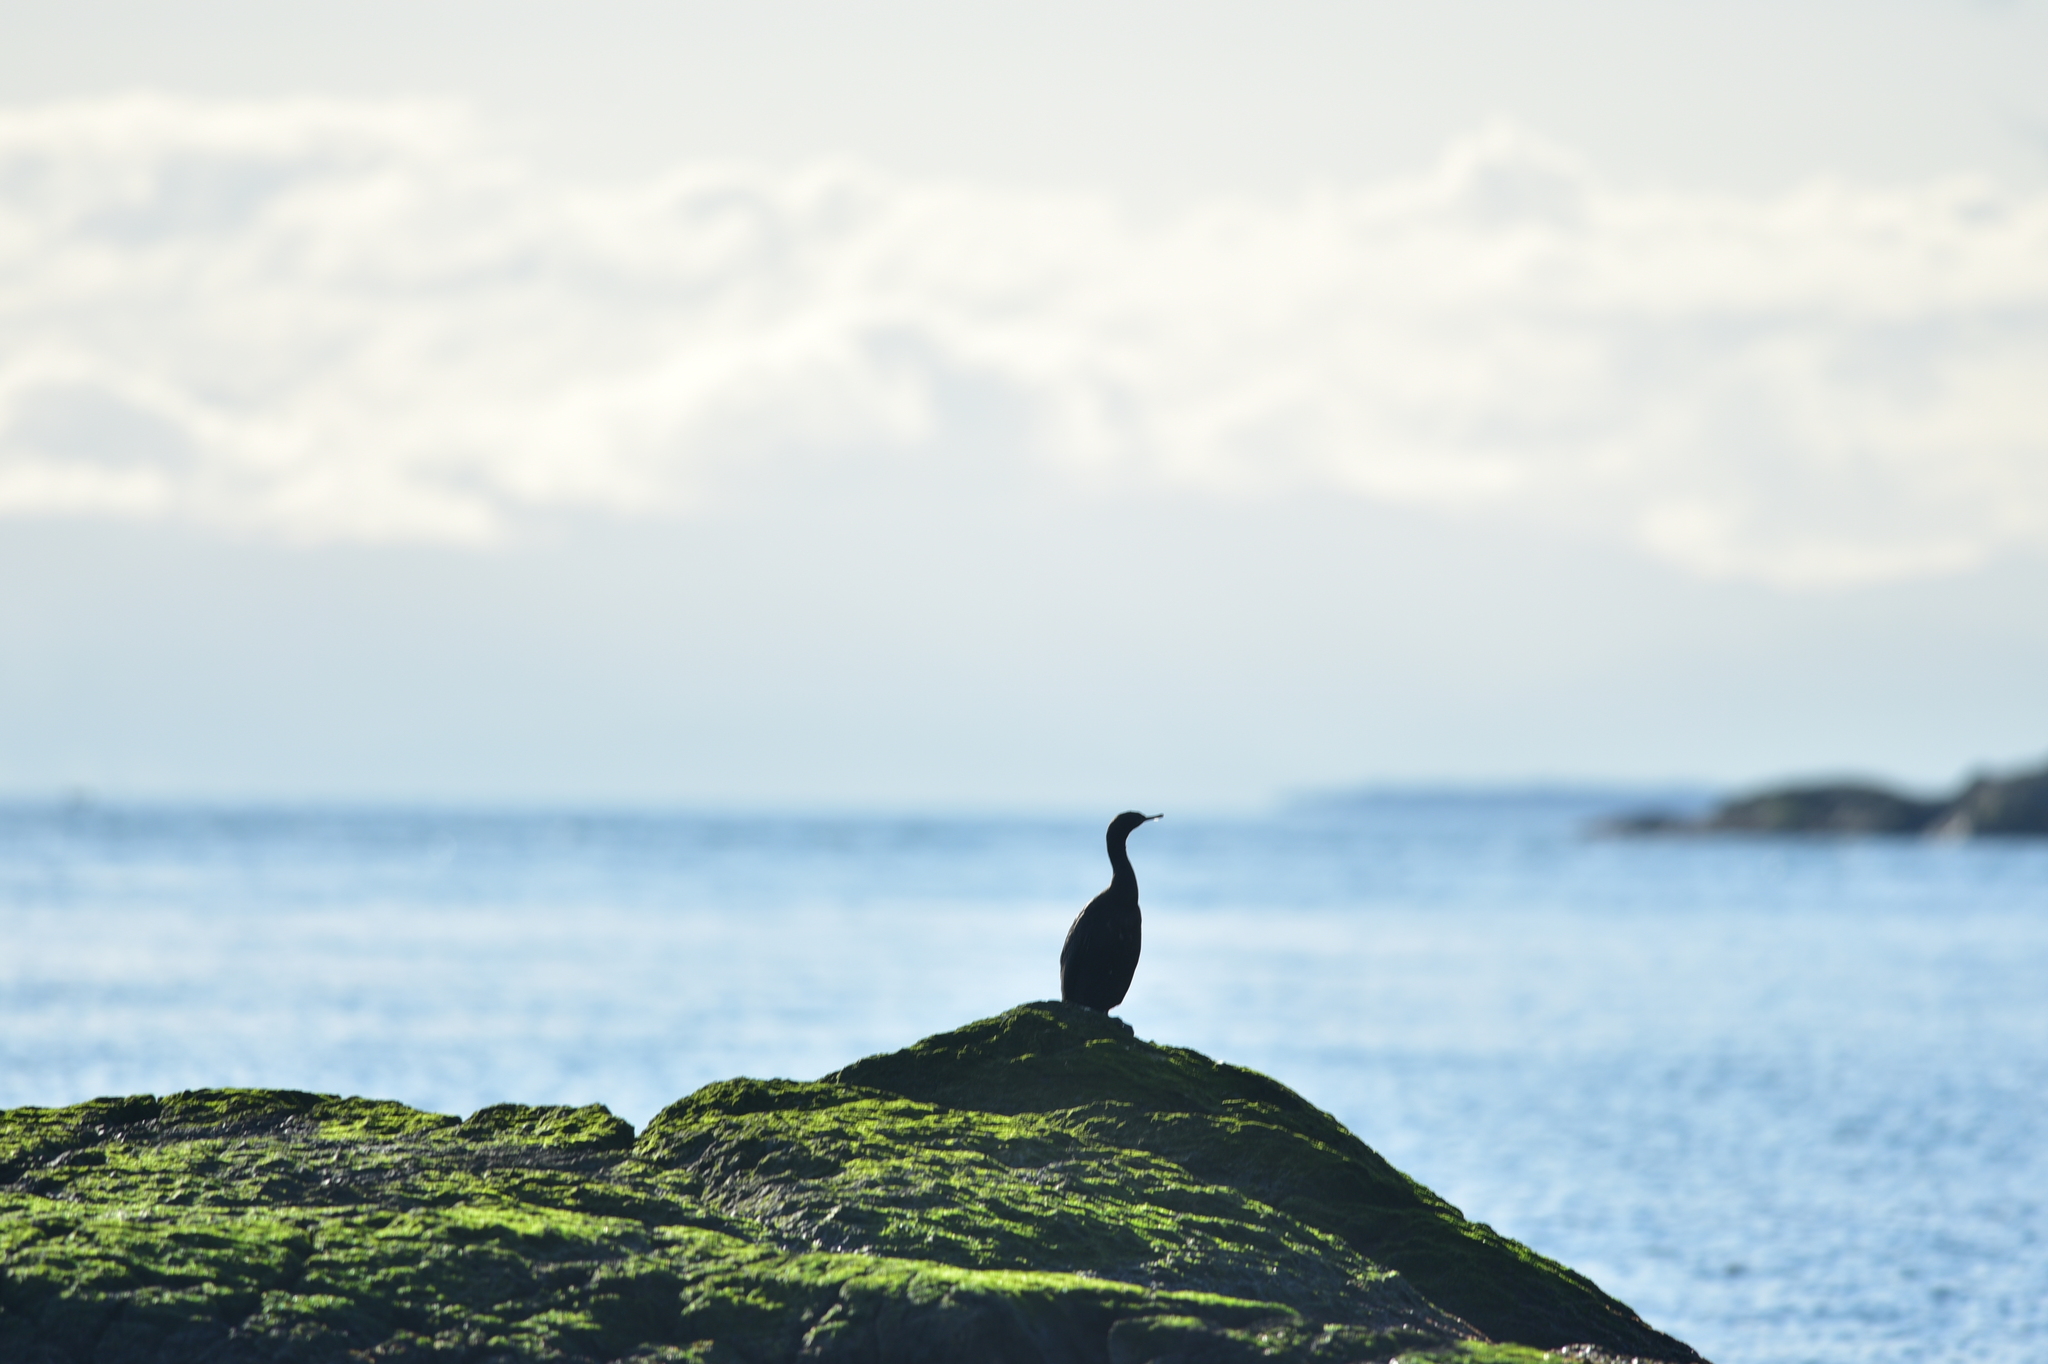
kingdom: Animalia
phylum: Chordata
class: Aves
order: Suliformes
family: Phalacrocoracidae
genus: Phalacrocorax
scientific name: Phalacrocorax pelagicus
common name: Pelagic cormorant
